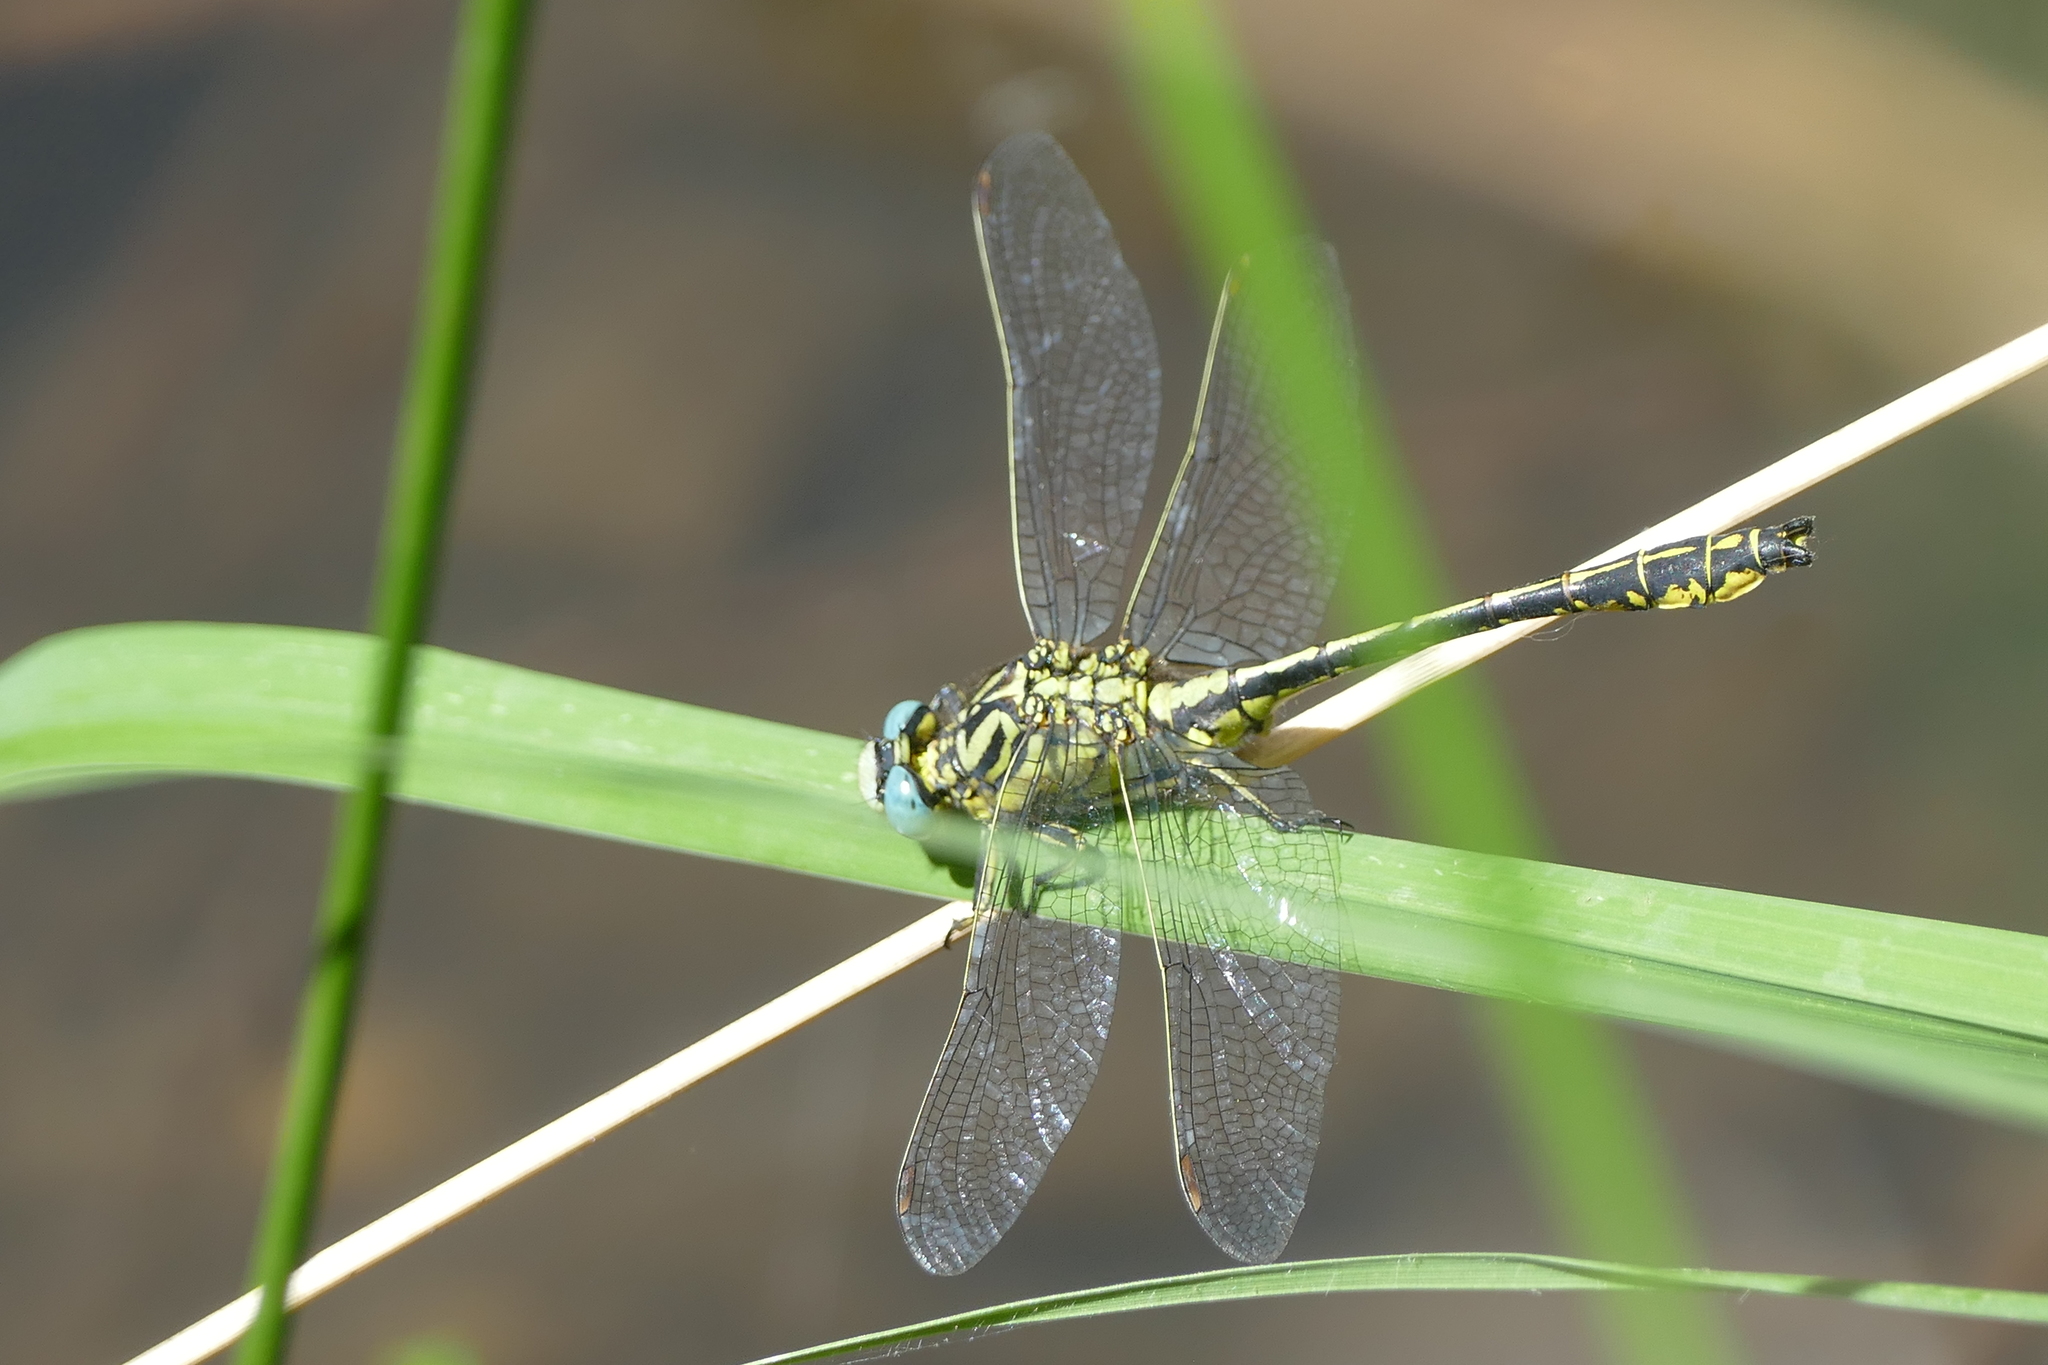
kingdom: Animalia
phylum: Arthropoda
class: Insecta
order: Odonata
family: Gomphidae
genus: Gomphus
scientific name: Gomphus simillimus
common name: Yellow clubtail
